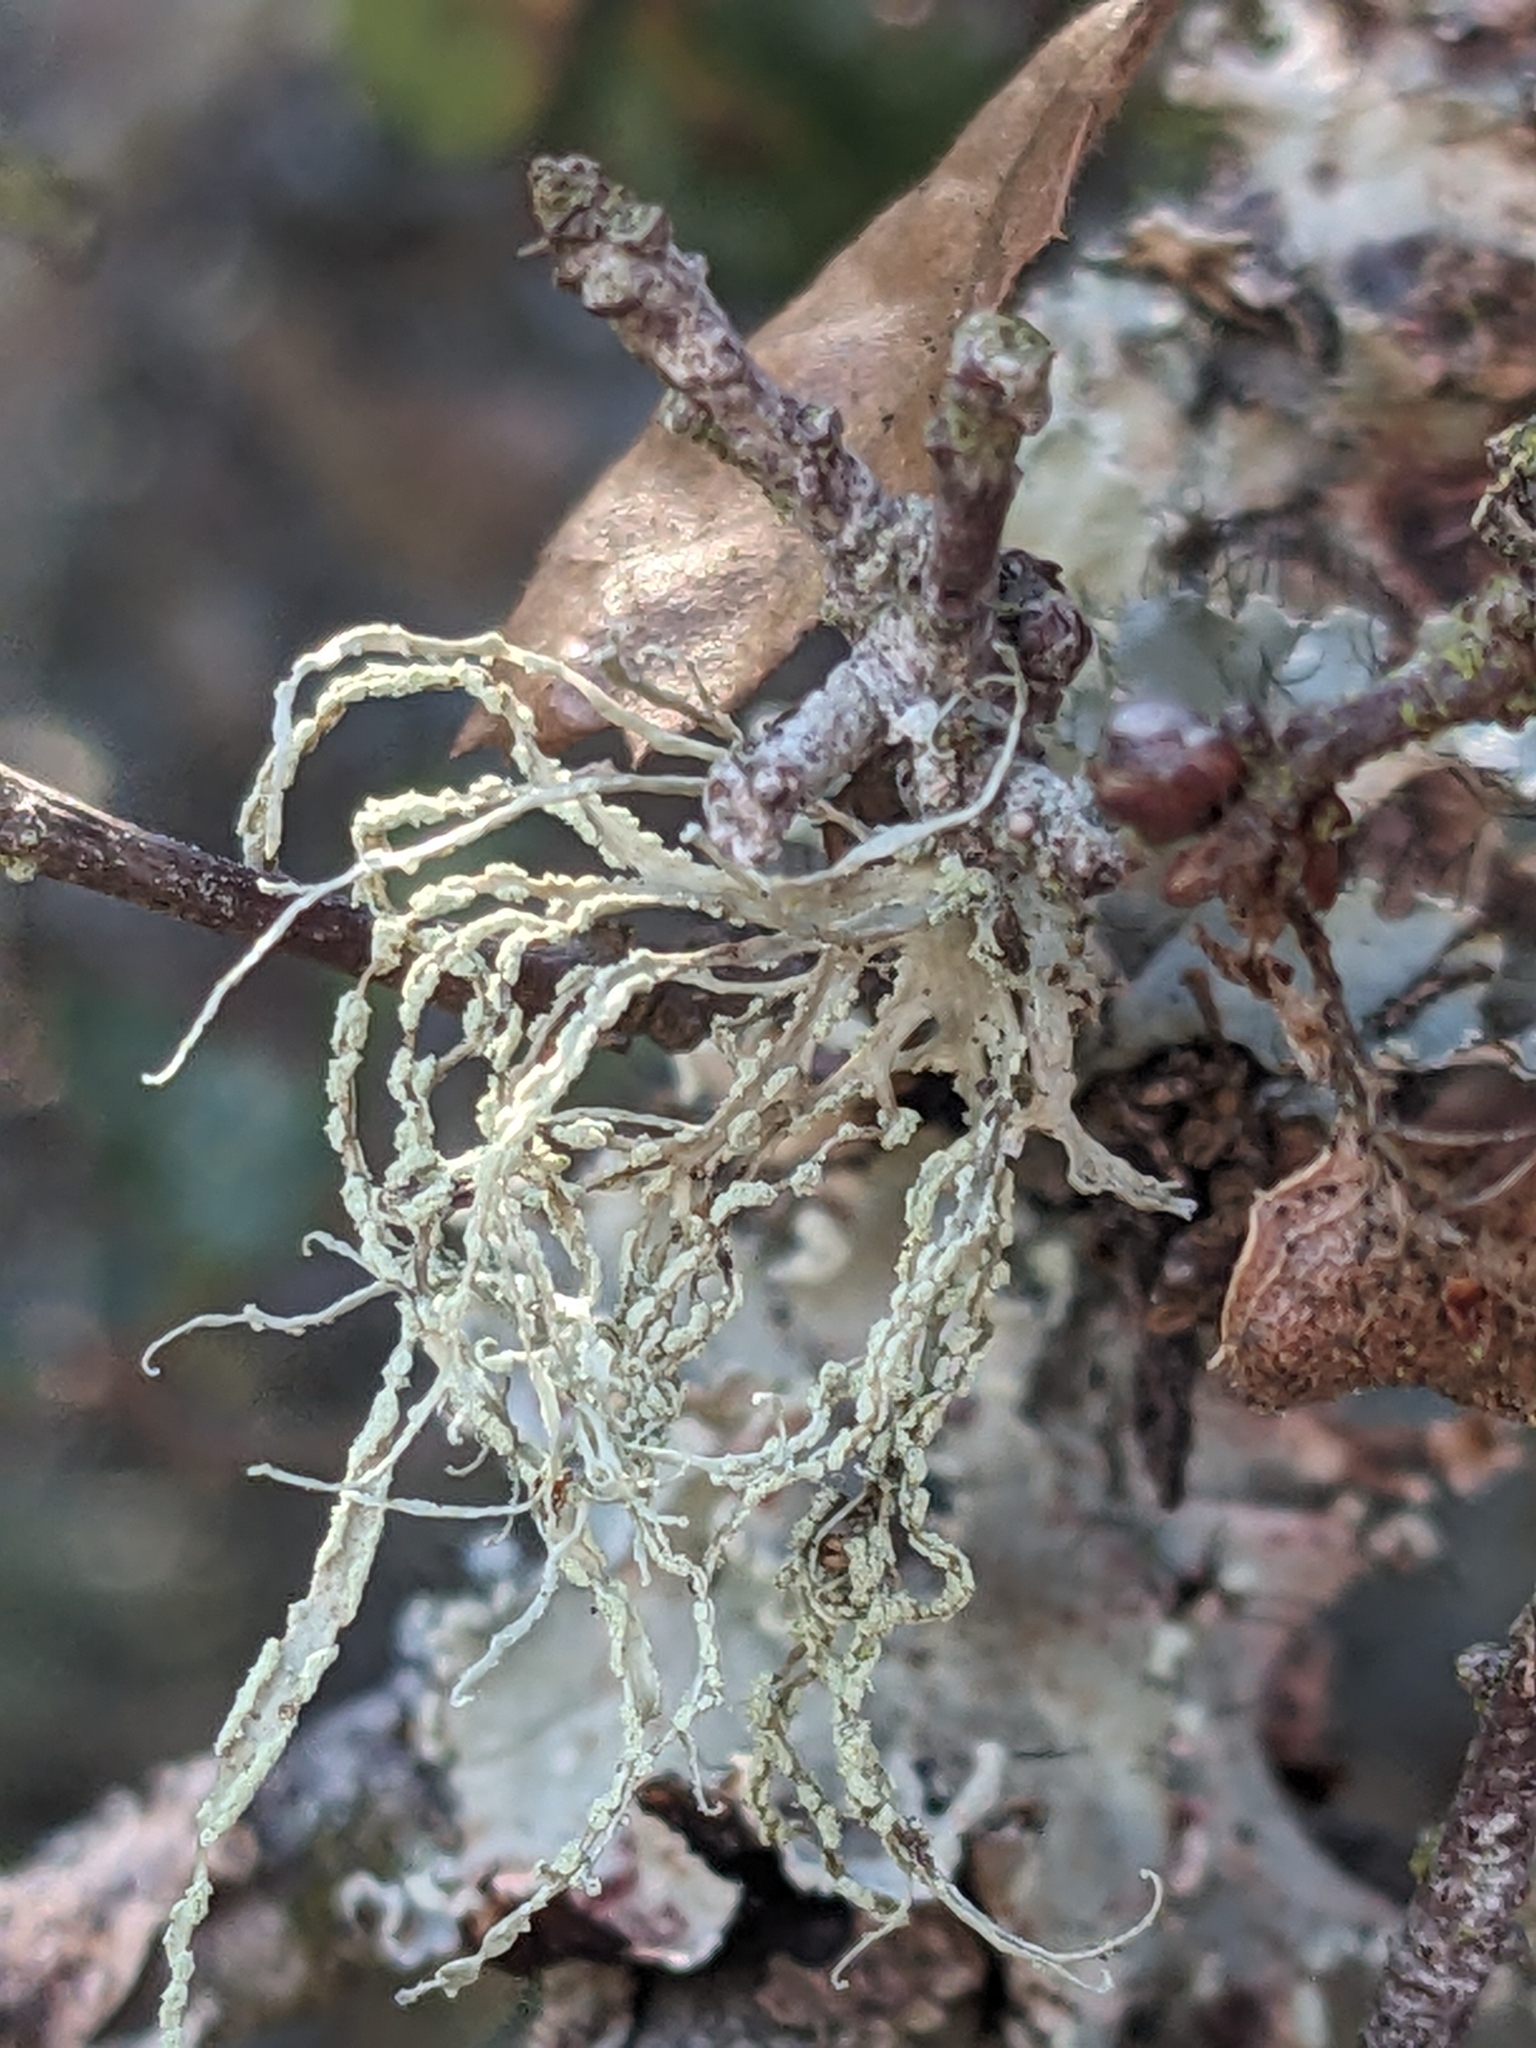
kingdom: Fungi
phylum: Ascomycota
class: Lecanoromycetes
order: Lecanorales
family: Ramalinaceae
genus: Ramalina
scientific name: Ramalina farinacea
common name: Farinose cartilage lichen
